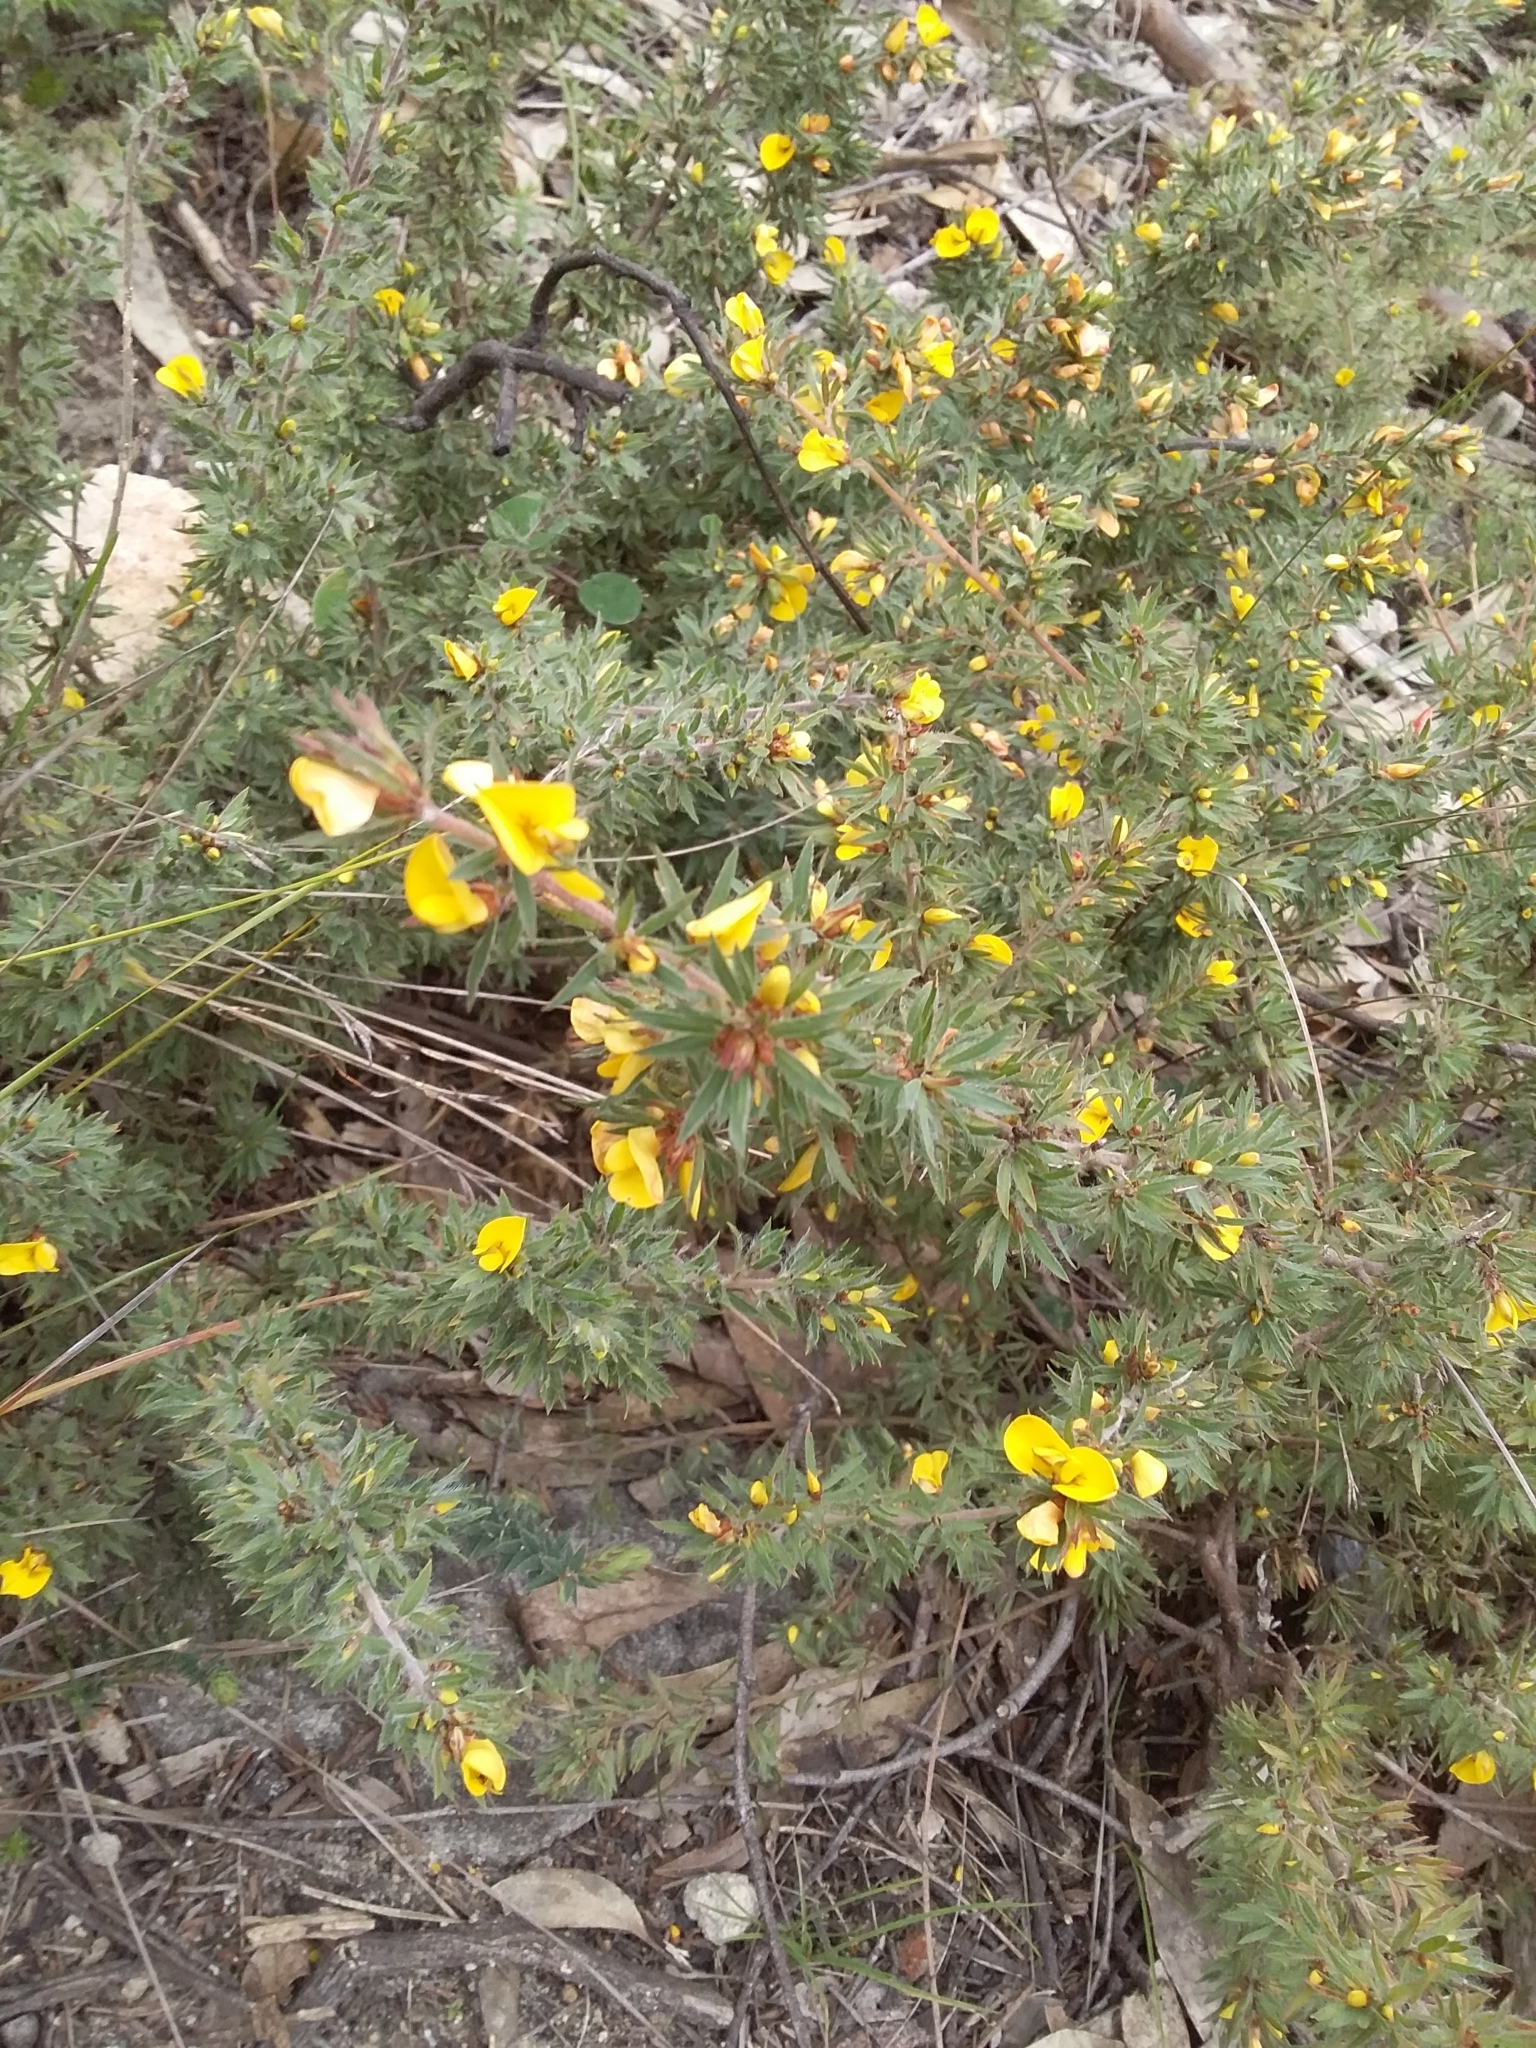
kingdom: Plantae
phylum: Tracheophyta
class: Magnoliopsida
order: Fabales
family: Fabaceae
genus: Pultenaea
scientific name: Pultenaea involucrata
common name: Mount lofty bush-pea
